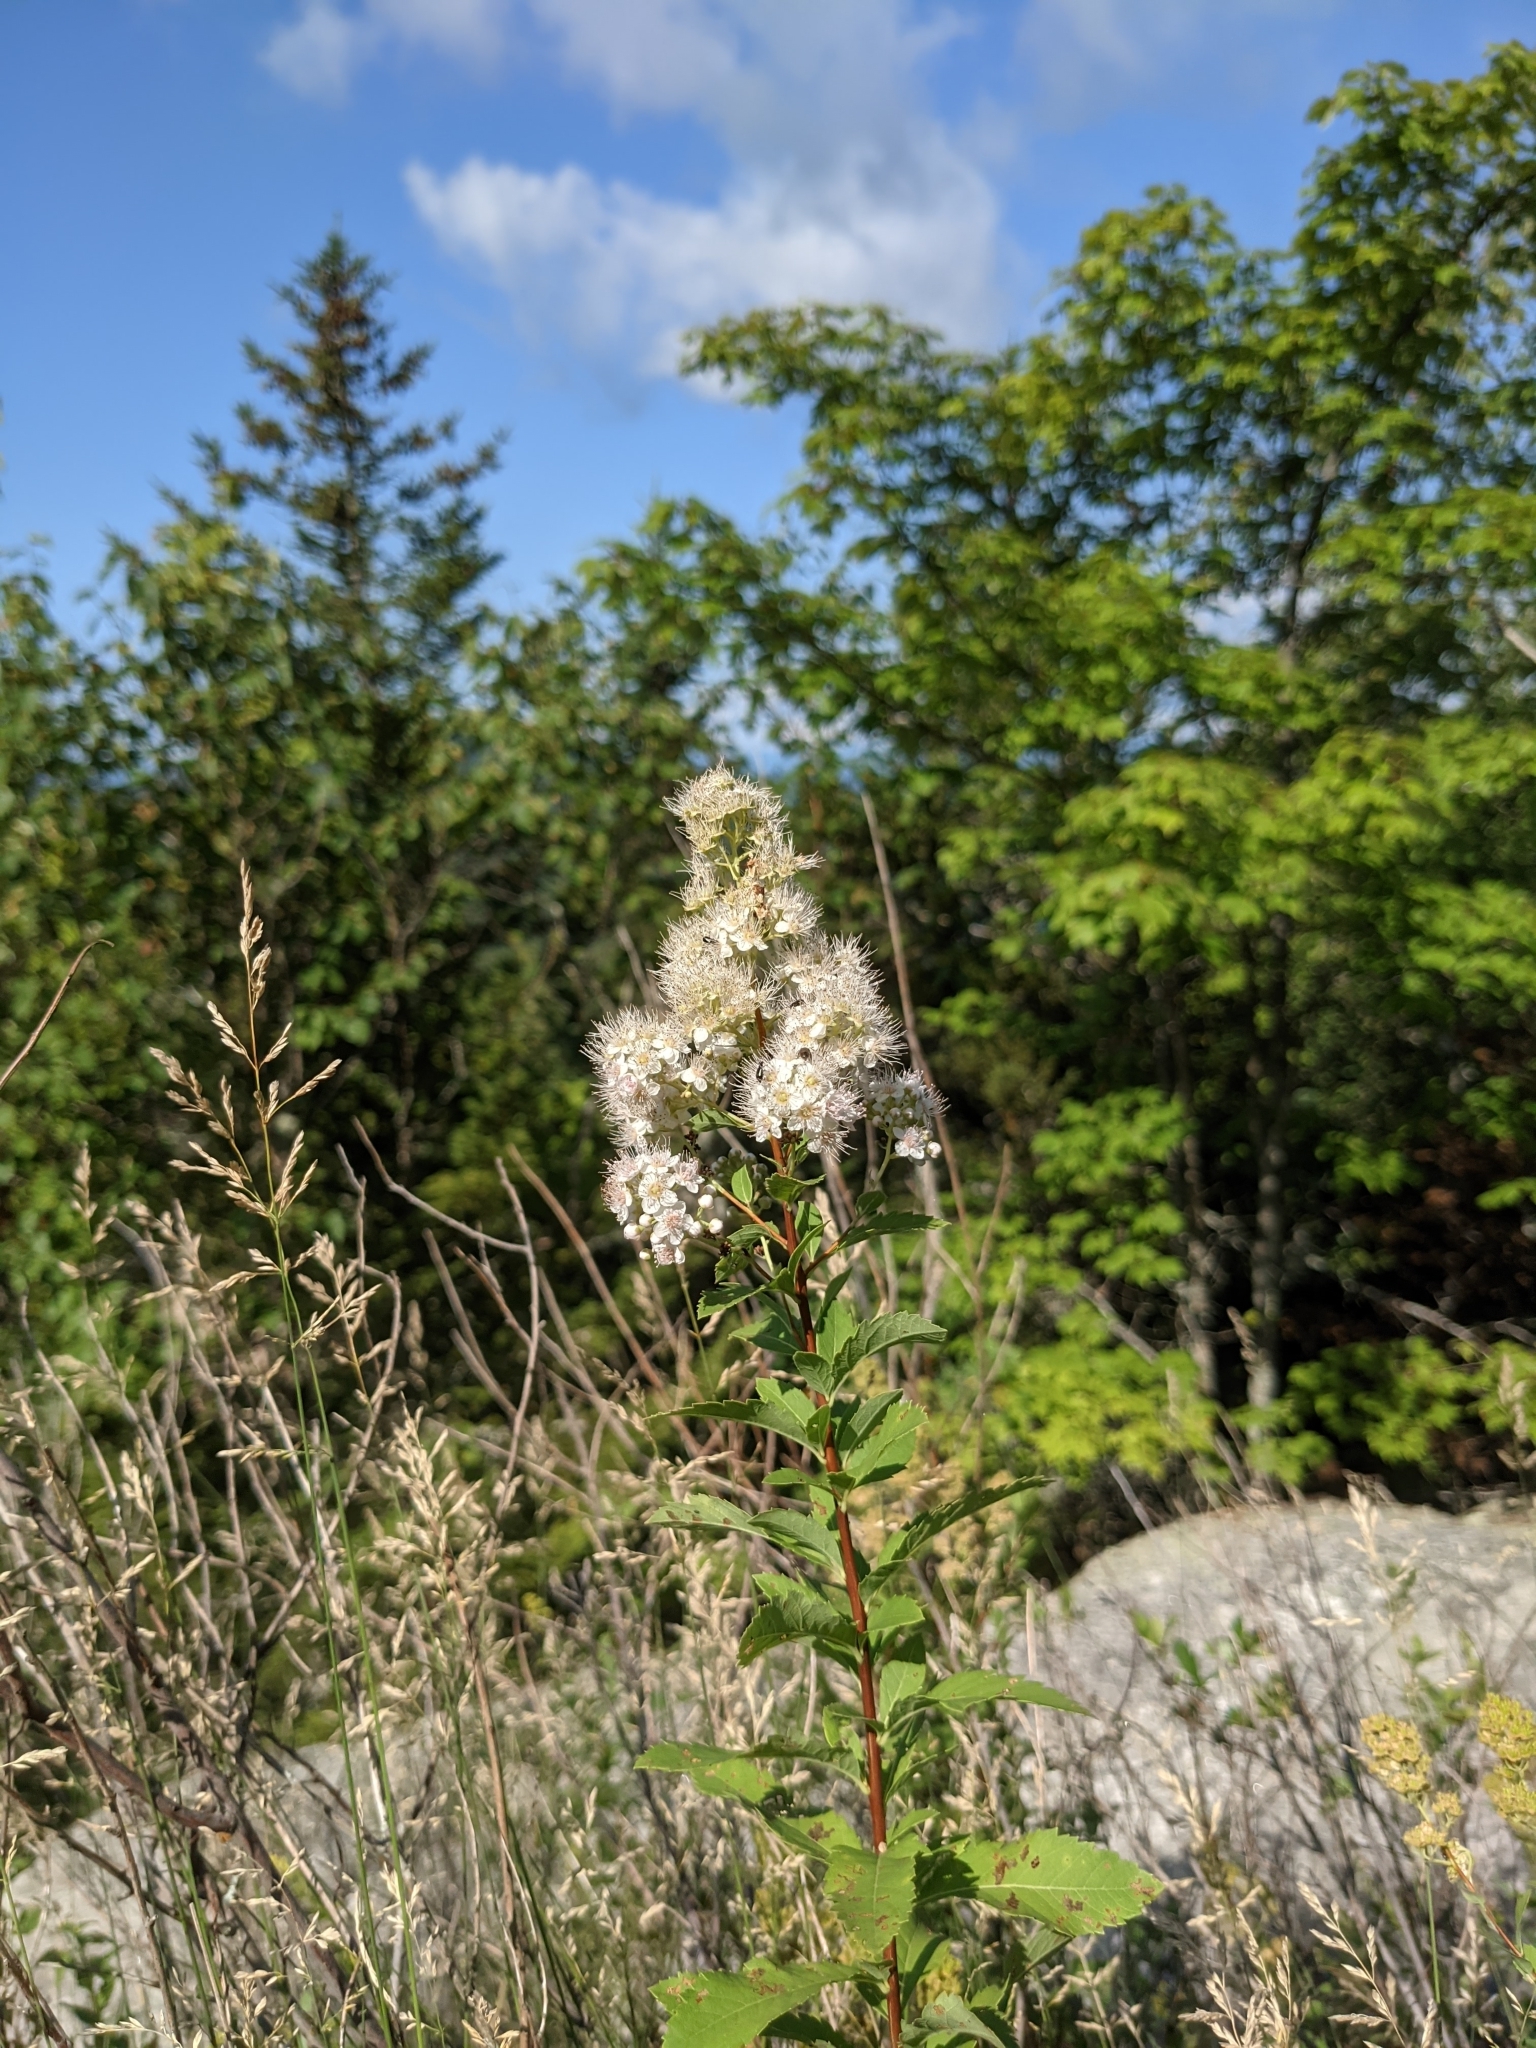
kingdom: Plantae
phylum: Tracheophyta
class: Magnoliopsida
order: Rosales
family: Rosaceae
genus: Spiraea
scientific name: Spiraea alba
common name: Pale bridewort
